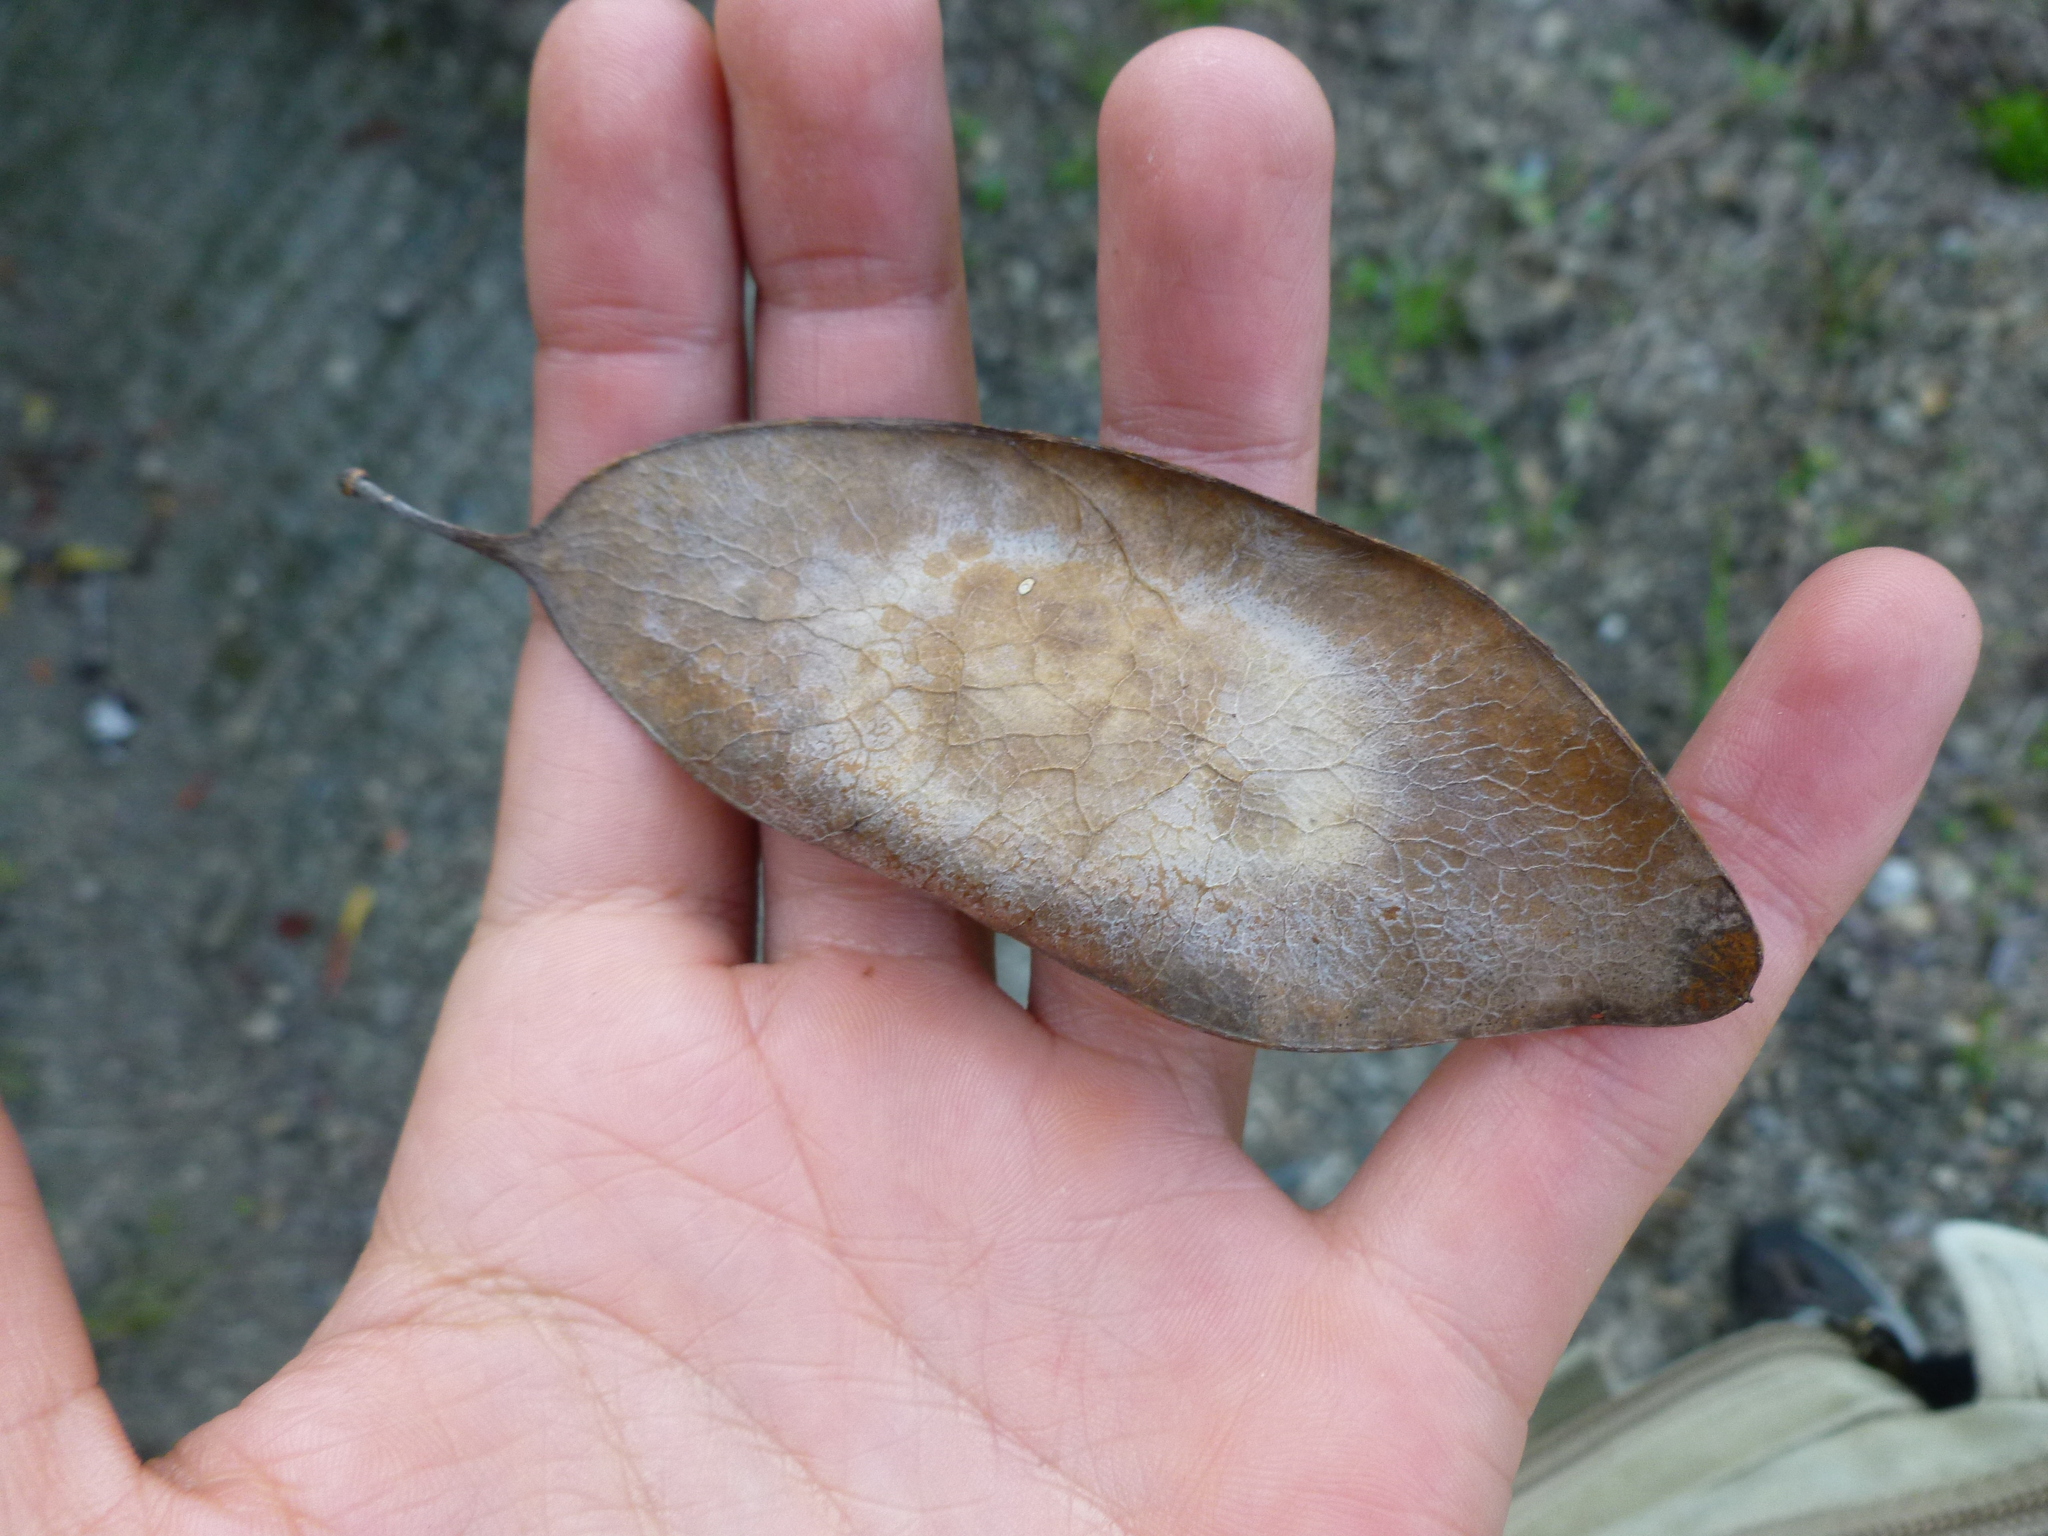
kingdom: Plantae
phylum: Tracheophyta
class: Magnoliopsida
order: Fabales
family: Fabaceae
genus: Platymiscium
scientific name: Platymiscium pinnatum
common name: Panama redwood
